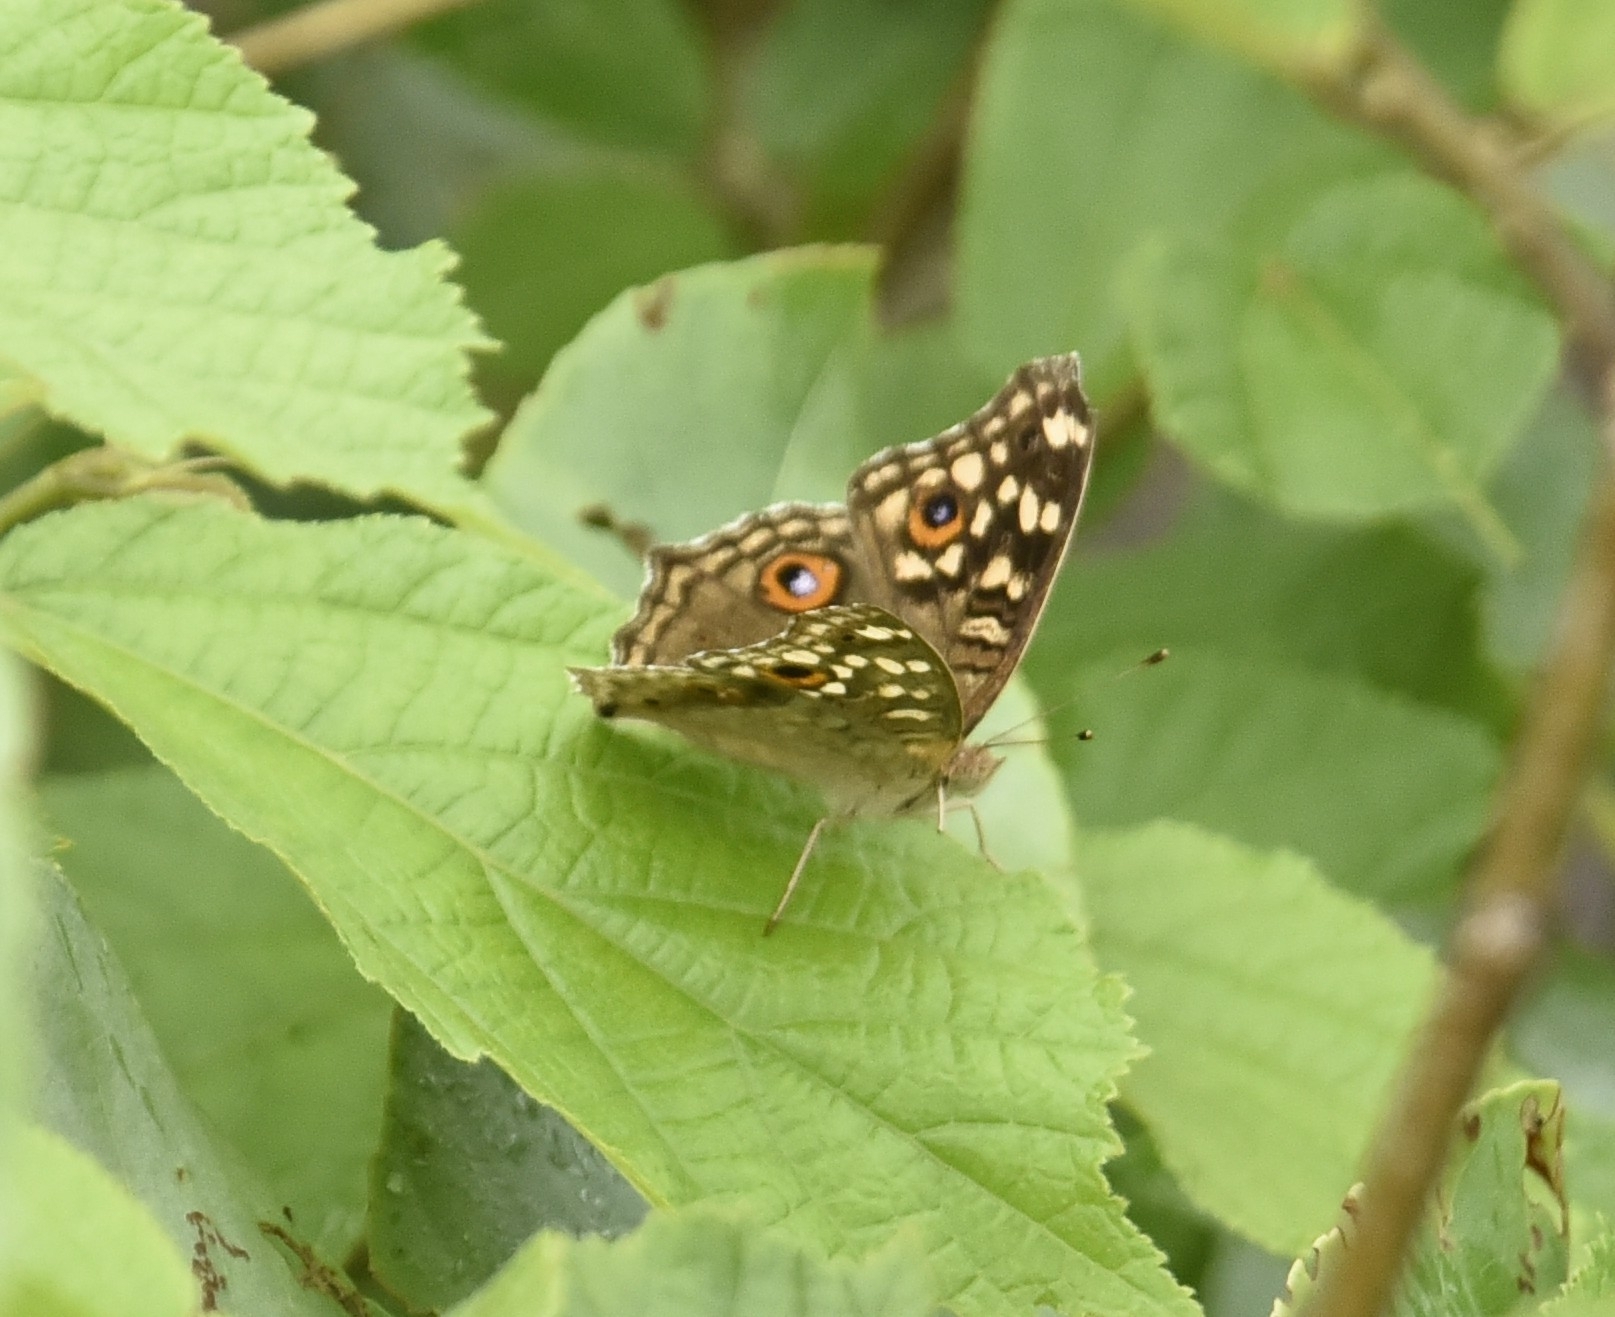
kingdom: Animalia
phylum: Arthropoda
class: Insecta
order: Lepidoptera
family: Nymphalidae
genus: Junonia
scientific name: Junonia lemonias
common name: Lemon pansy
